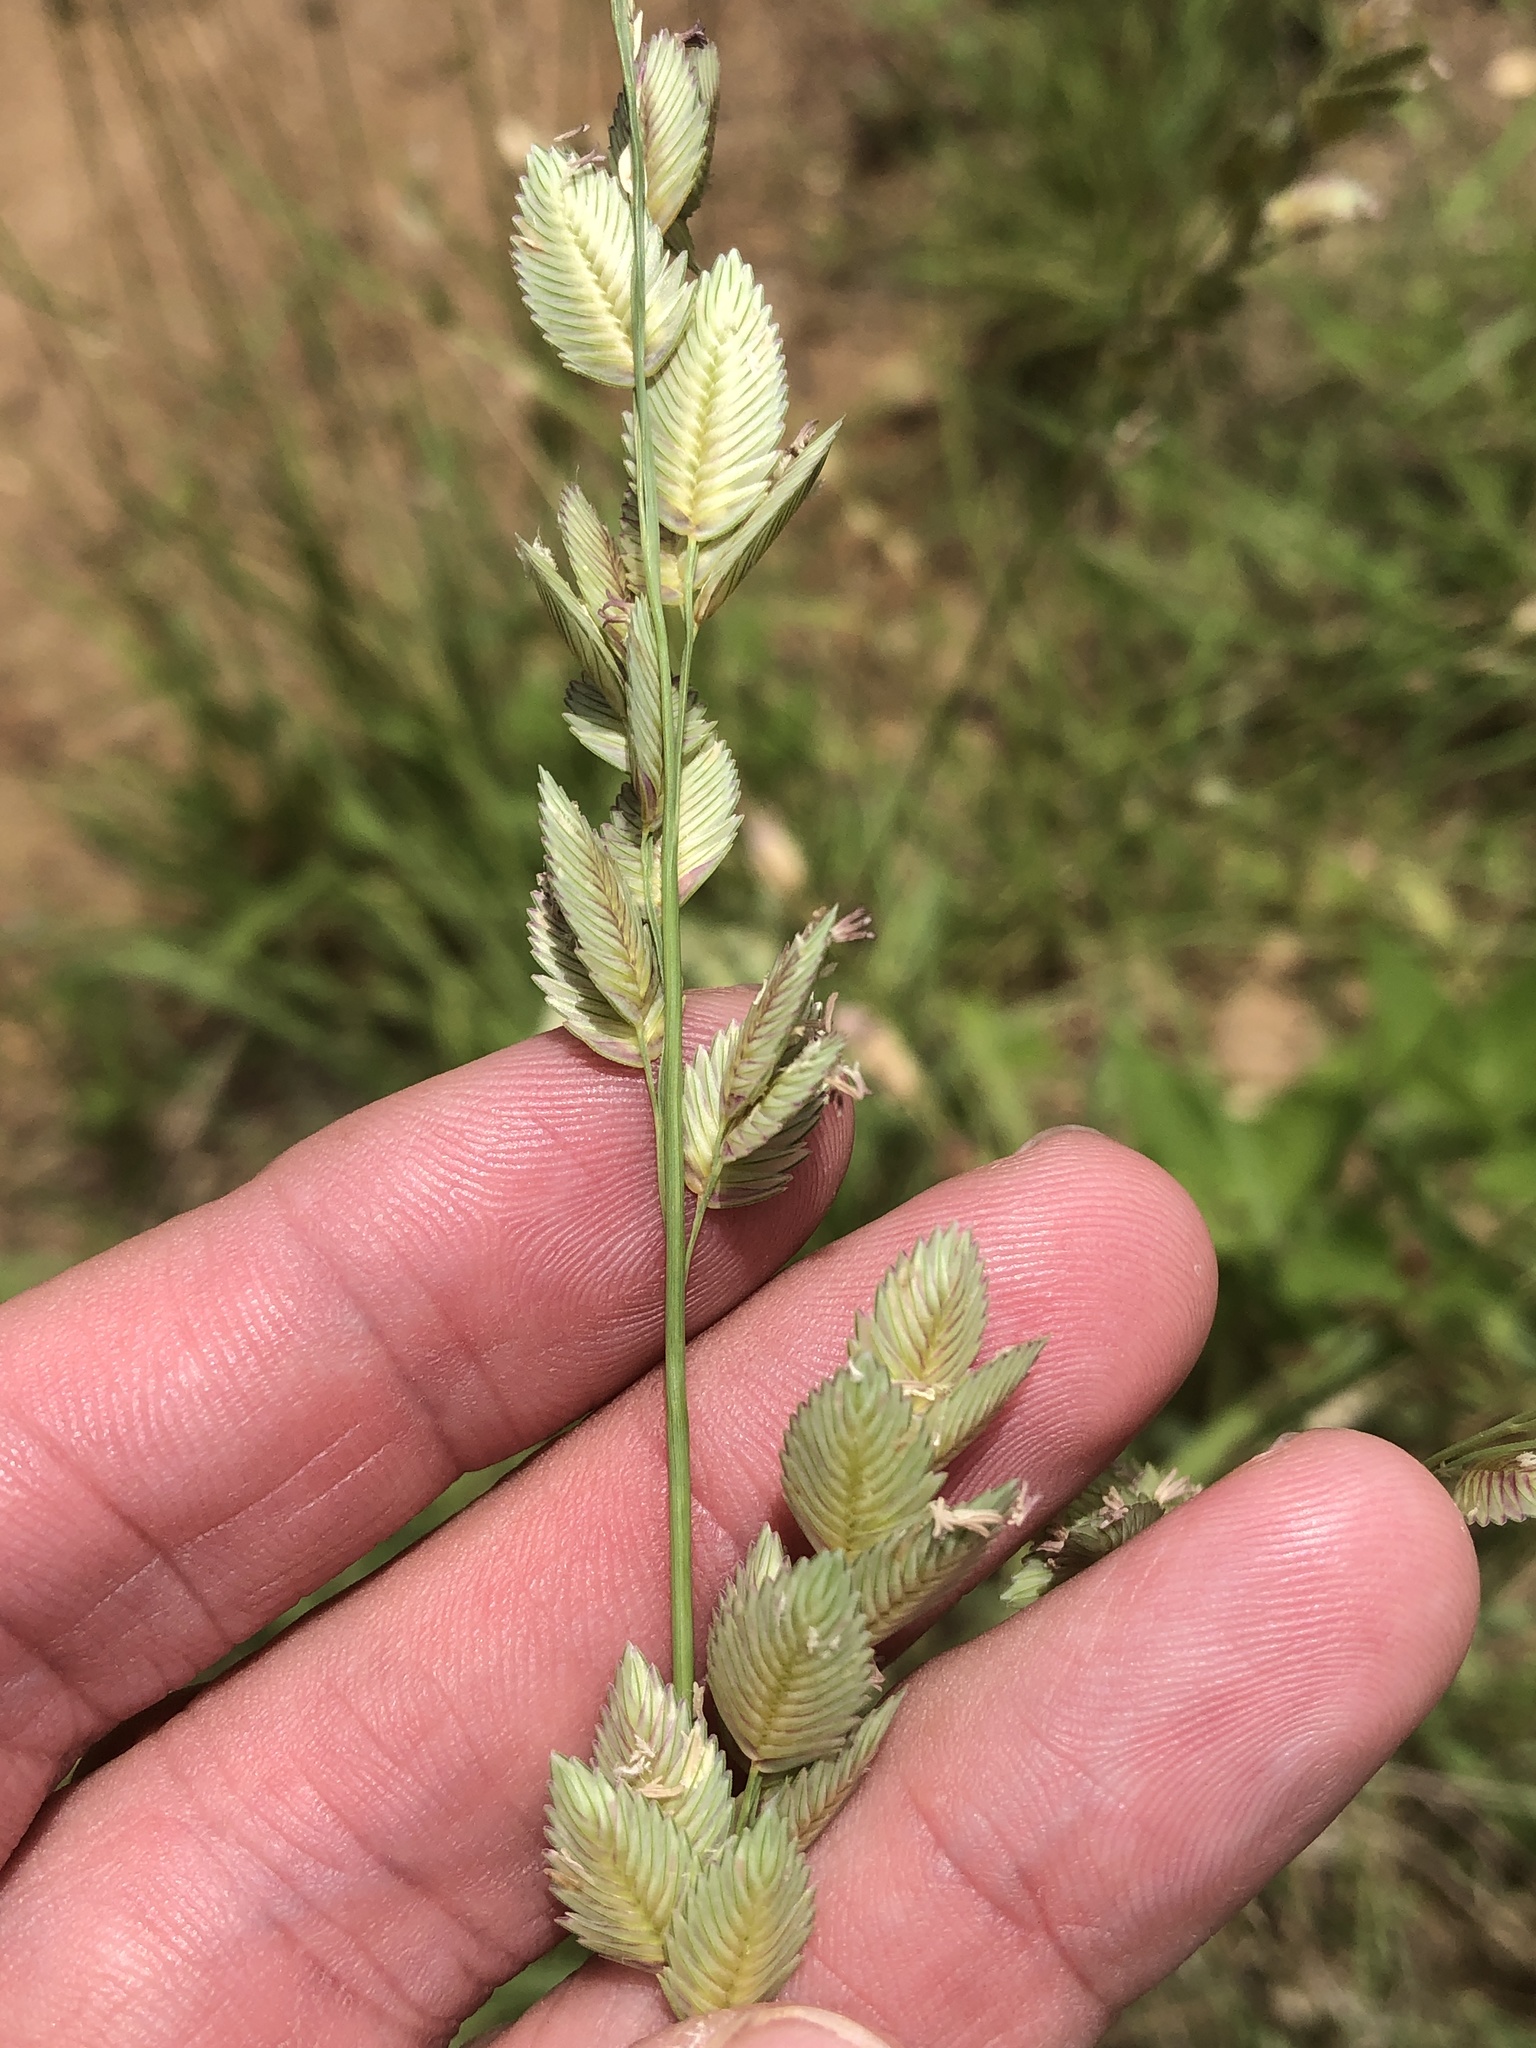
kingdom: Plantae
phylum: Tracheophyta
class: Liliopsida
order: Poales
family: Poaceae
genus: Eragrostis
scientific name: Eragrostis superba
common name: Wilman lovegrass
